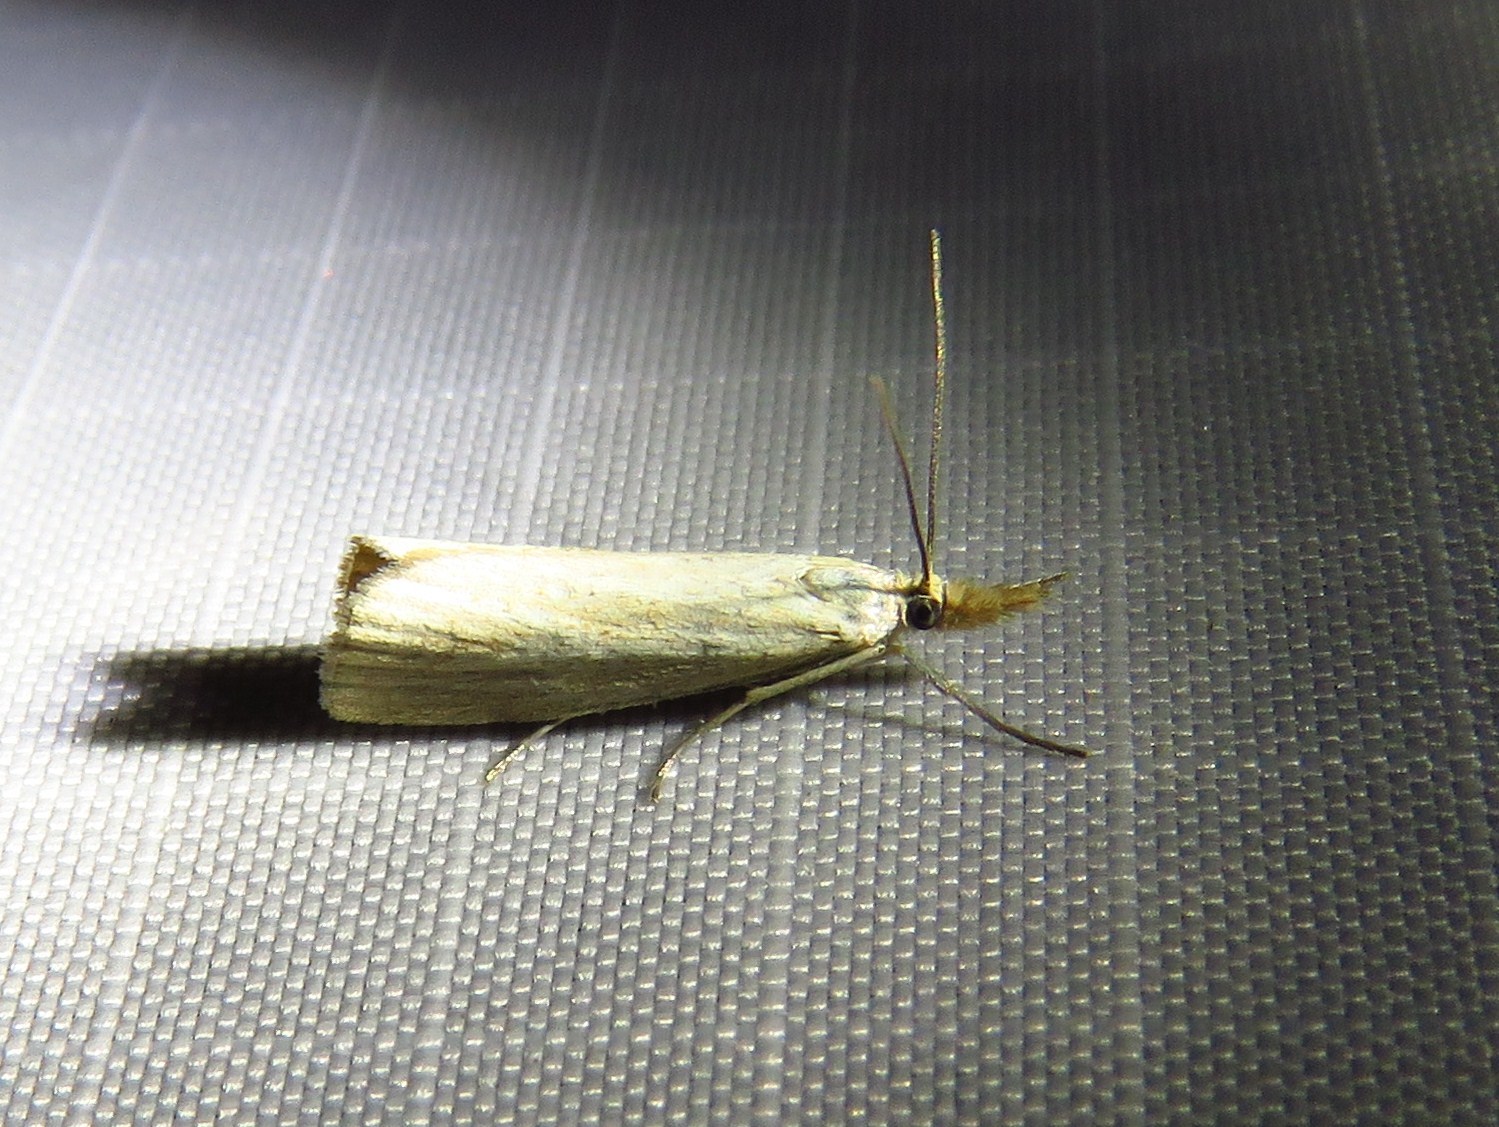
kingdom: Animalia
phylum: Arthropoda
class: Insecta
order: Lepidoptera
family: Crambidae
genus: Agriphila
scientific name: Agriphila straminella
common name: Straw grass-veneer
